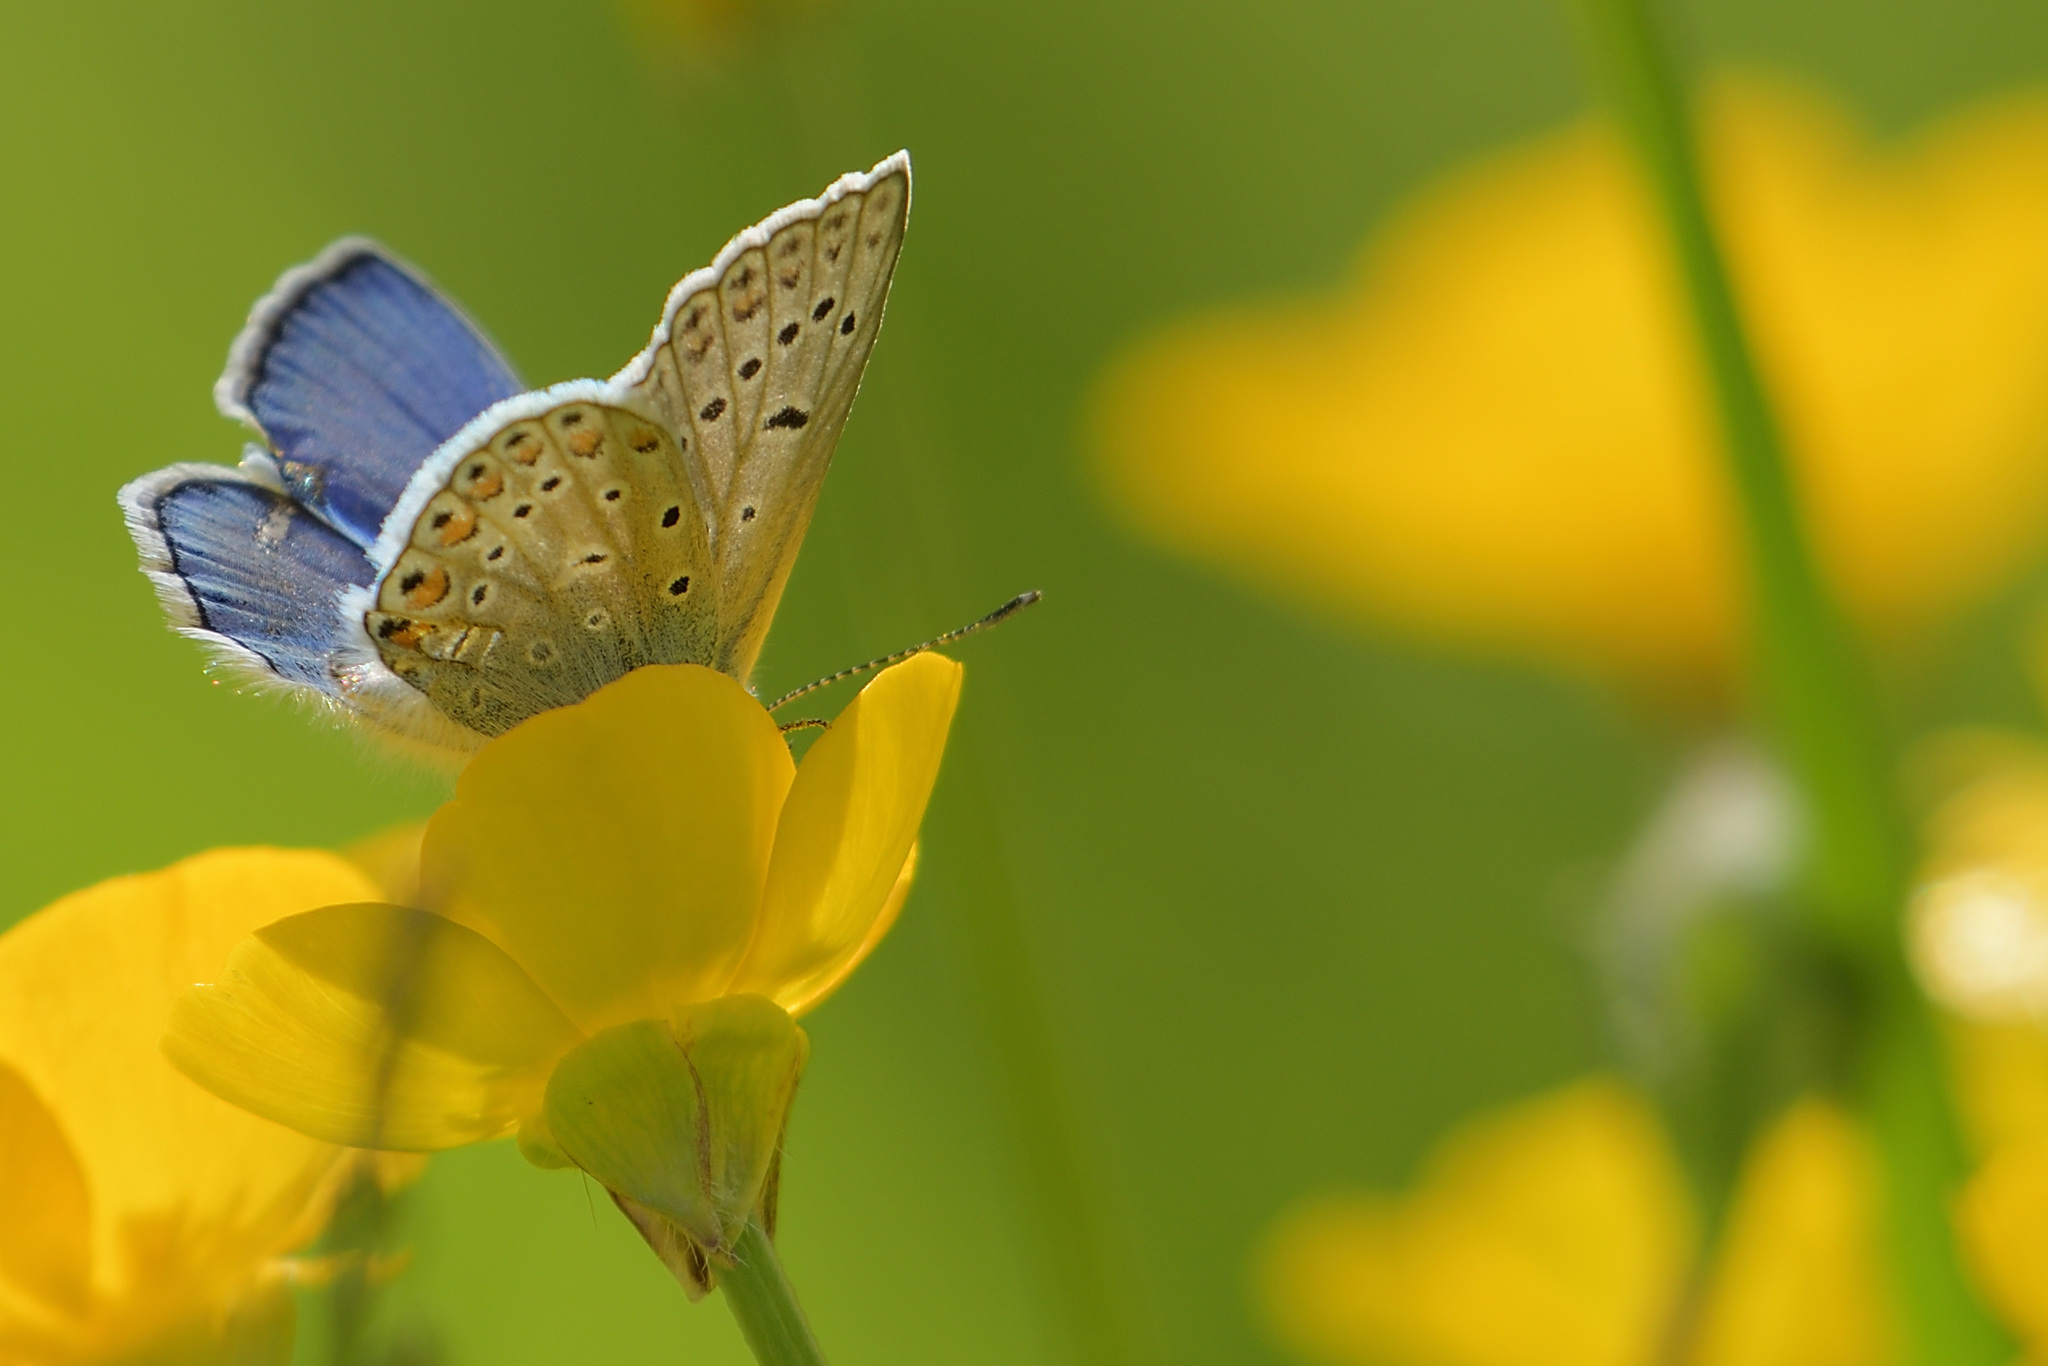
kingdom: Animalia
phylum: Arthropoda
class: Insecta
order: Lepidoptera
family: Lycaenidae
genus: Polyommatus
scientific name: Polyommatus icarus
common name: Common blue
